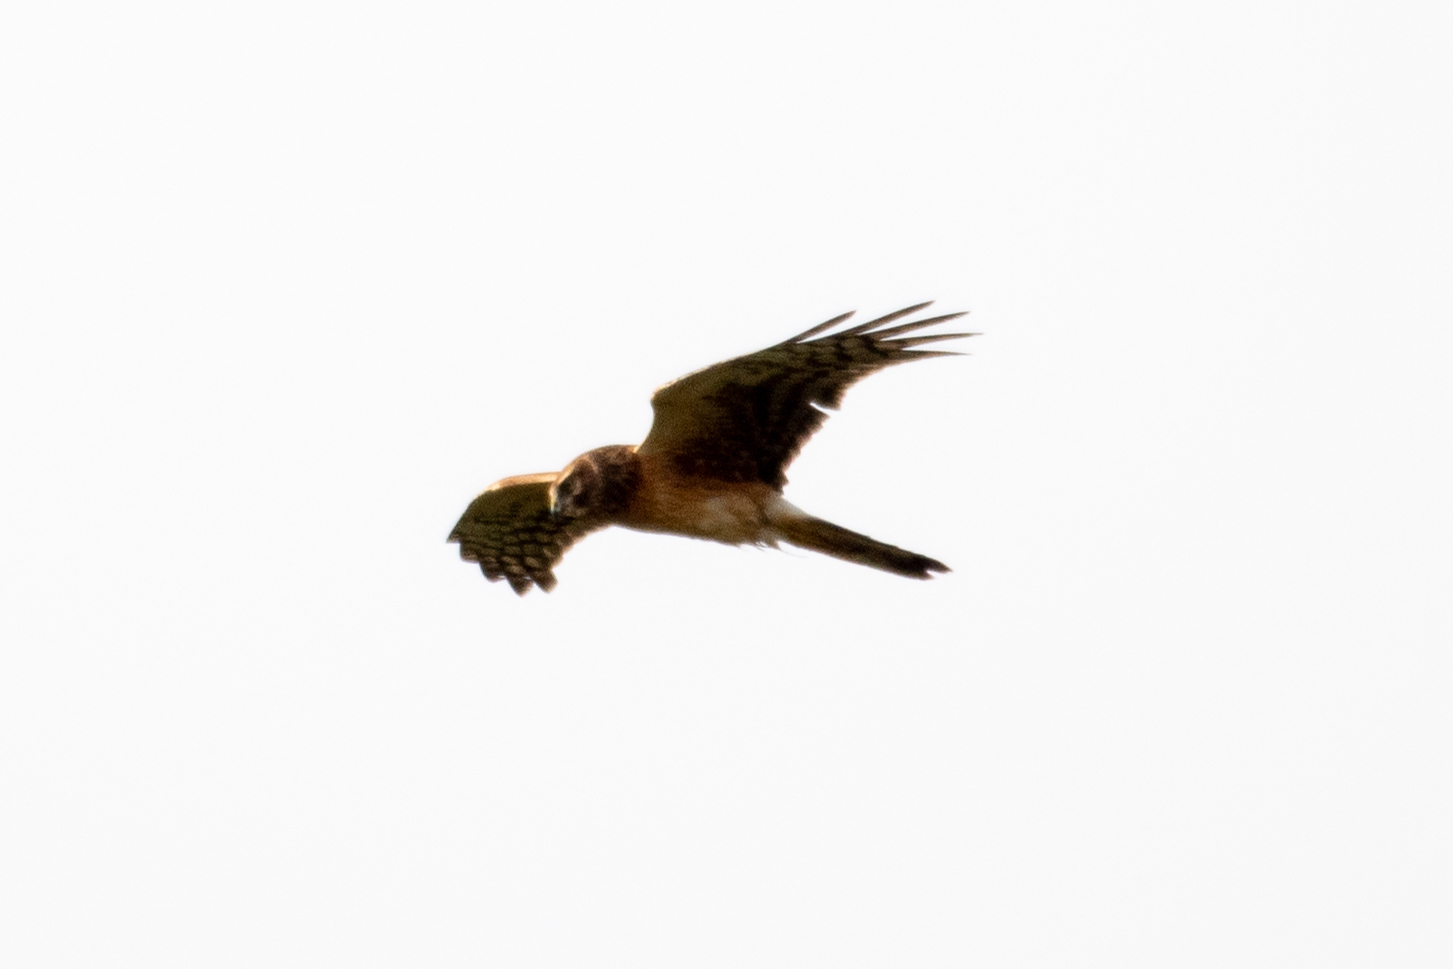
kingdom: Animalia
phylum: Chordata
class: Aves
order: Accipitriformes
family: Accipitridae
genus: Circus
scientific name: Circus cyaneus
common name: Hen harrier
